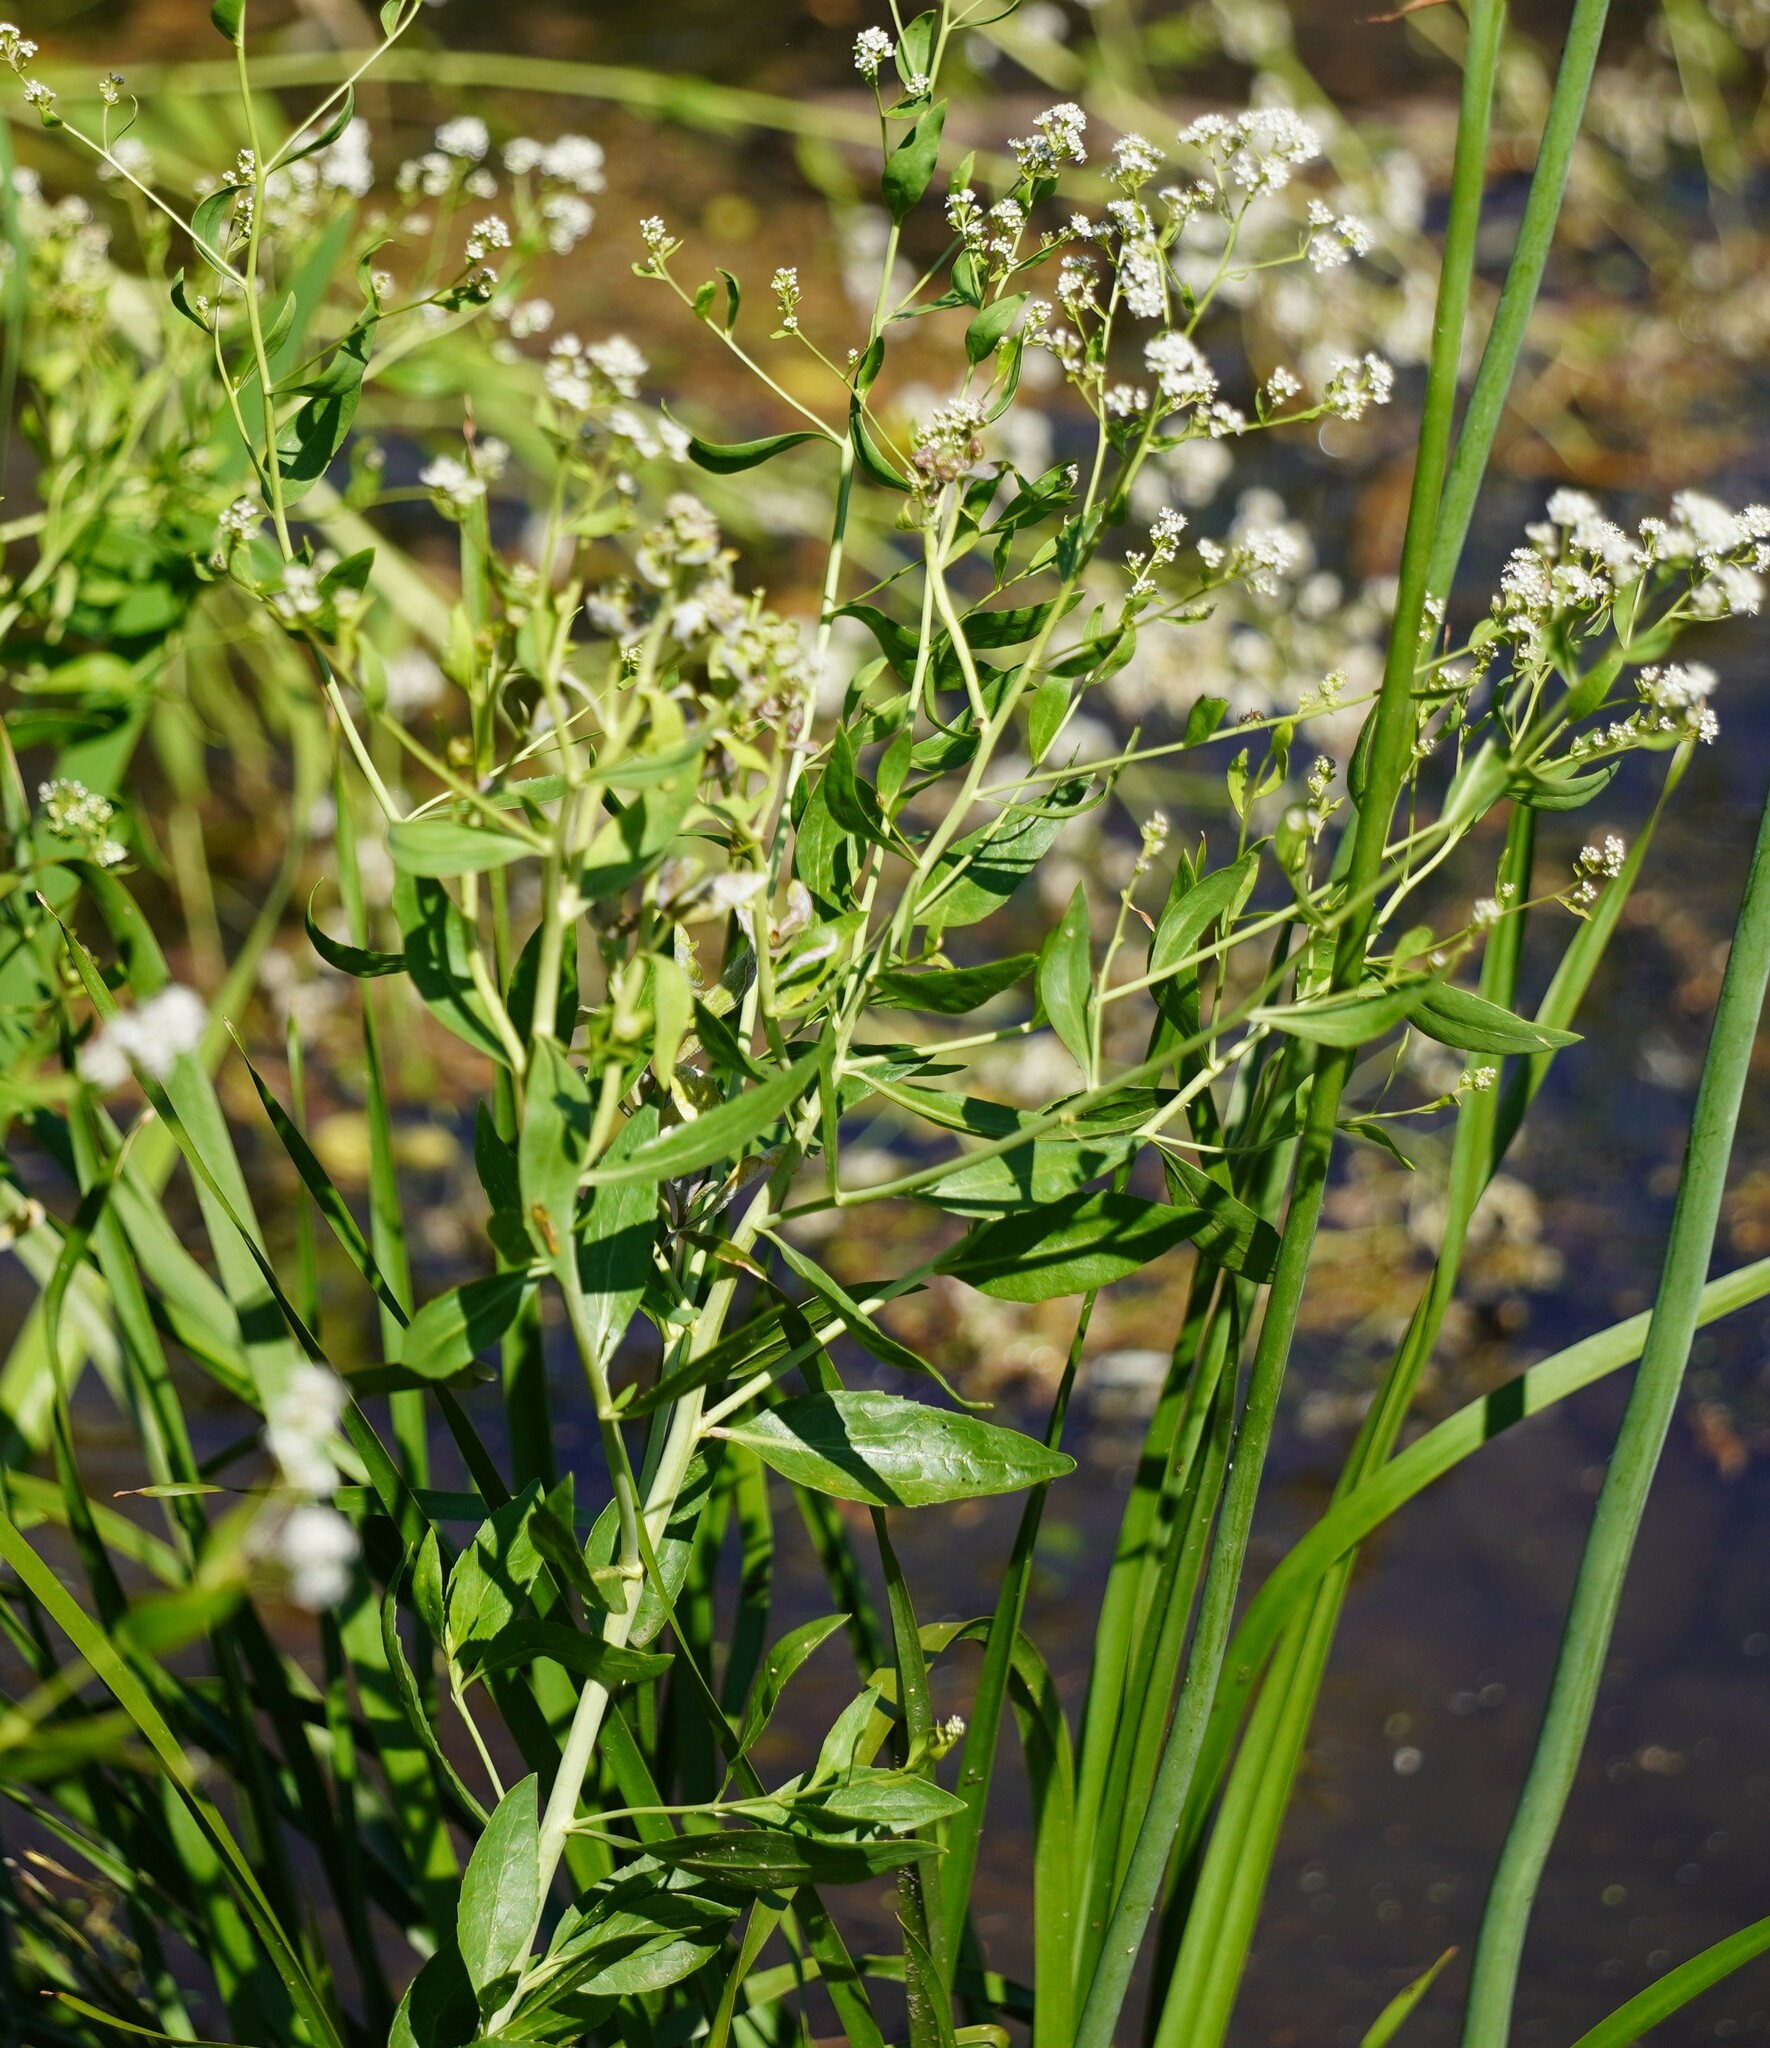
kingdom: Plantae
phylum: Tracheophyta
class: Magnoliopsida
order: Brassicales
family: Brassicaceae
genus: Lepidium
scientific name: Lepidium latifolium
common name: Dittander
